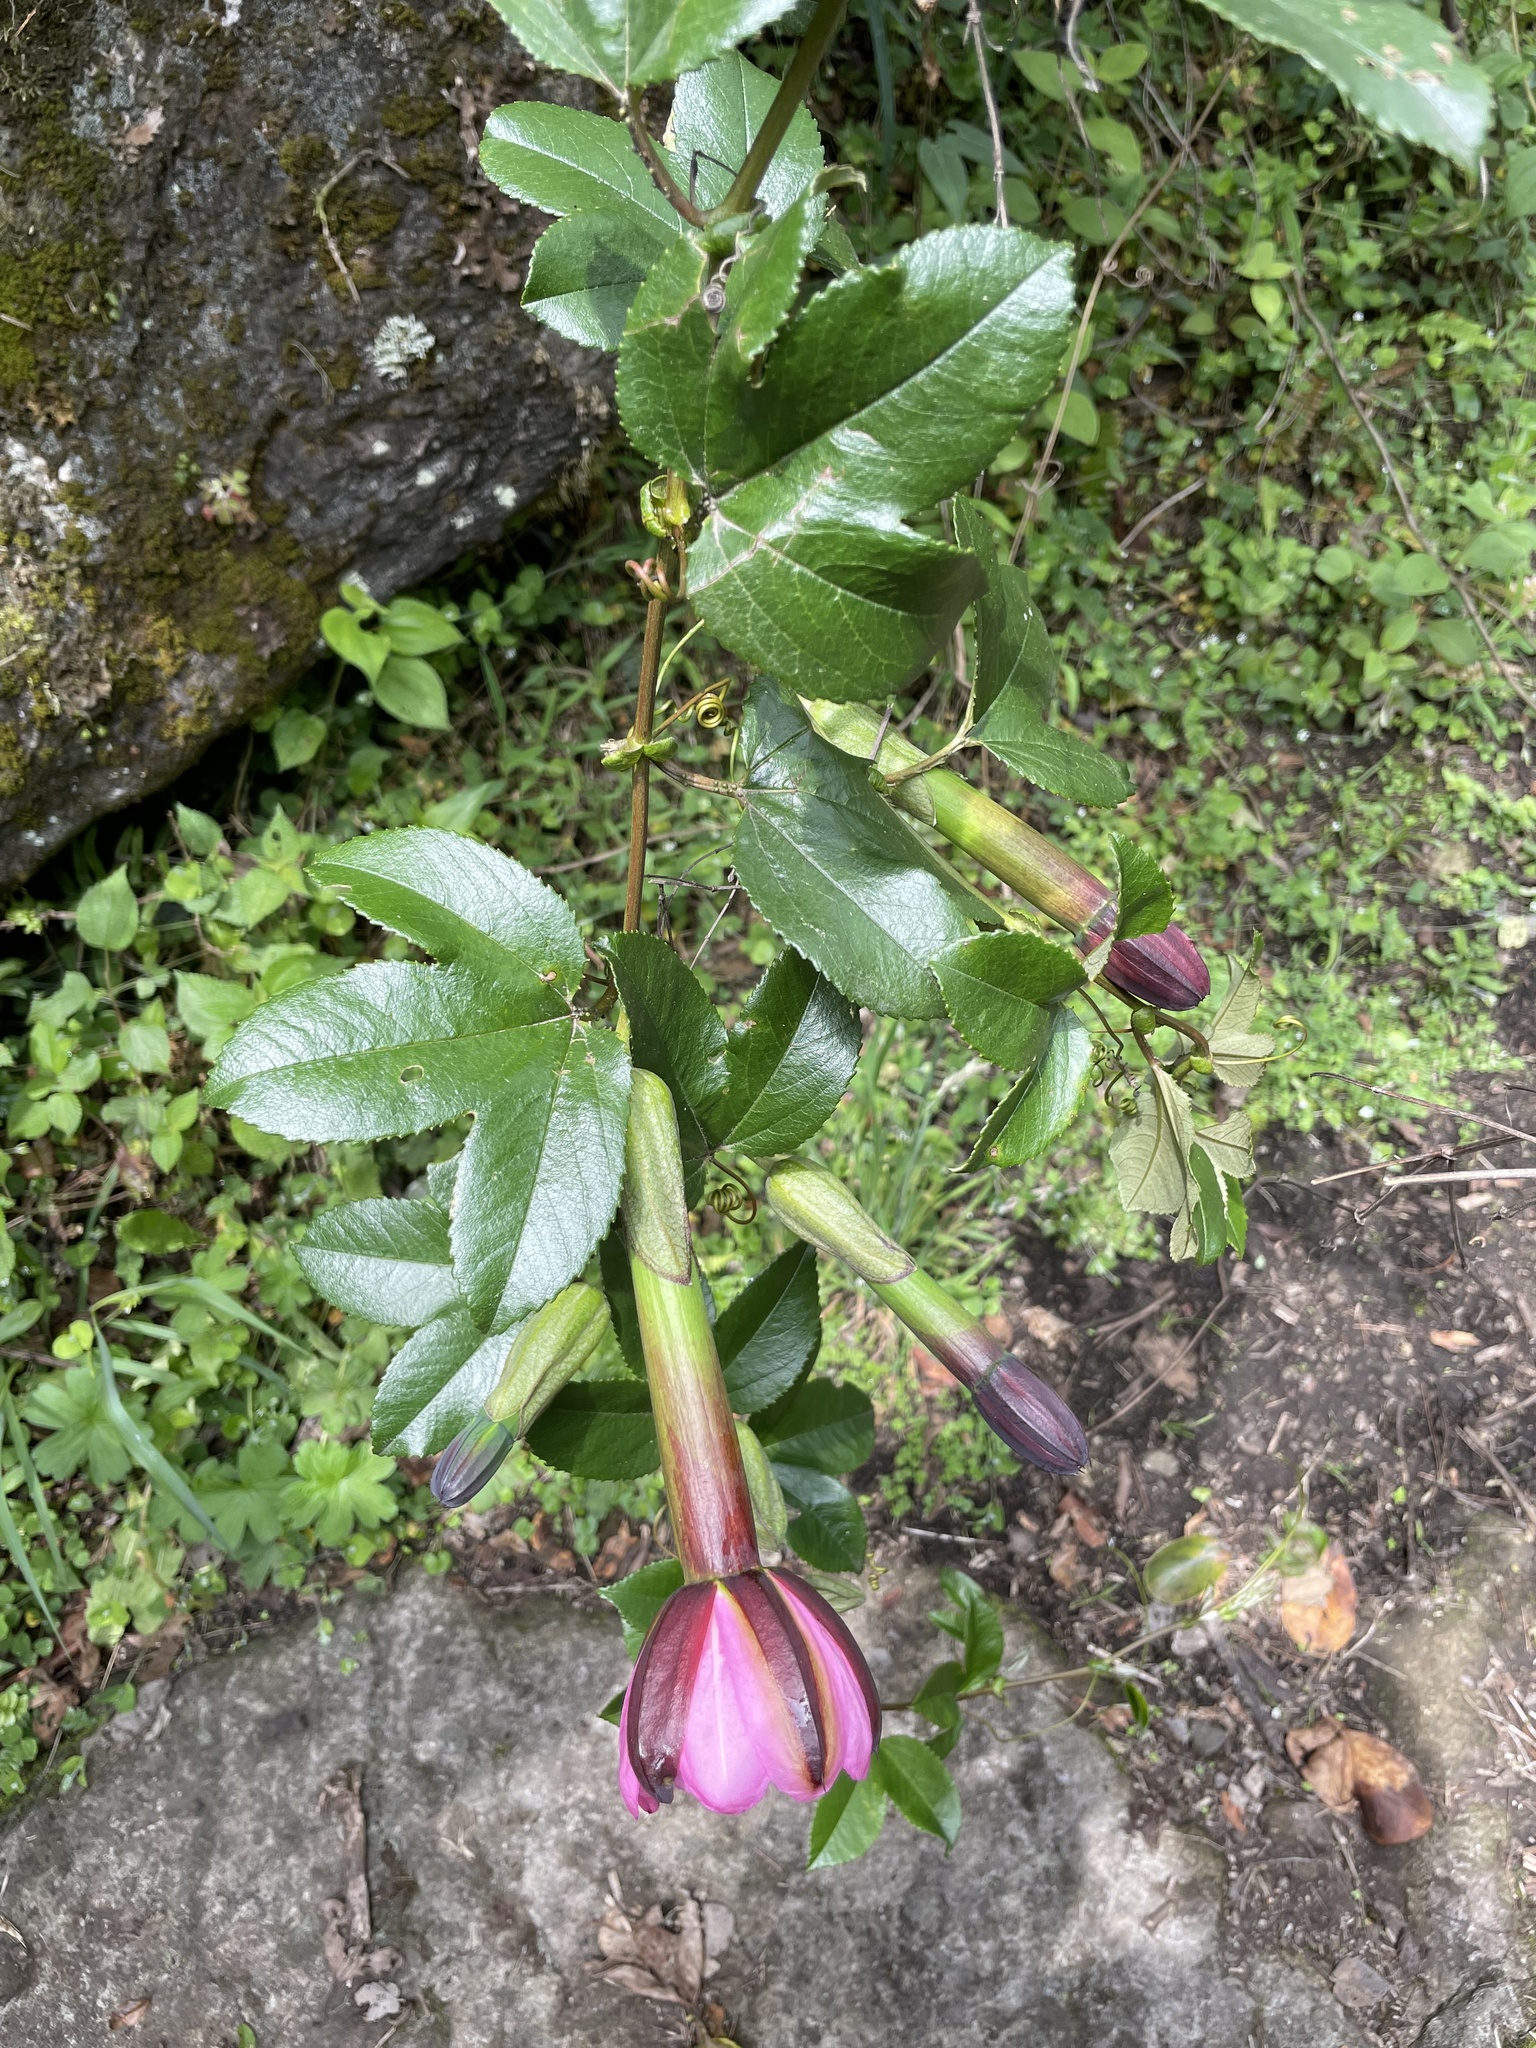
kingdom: Plantae
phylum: Tracheophyta
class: Magnoliopsida
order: Malpighiales
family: Passifloraceae
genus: Passiflora
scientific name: Passiflora tripartita
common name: Banana poka
